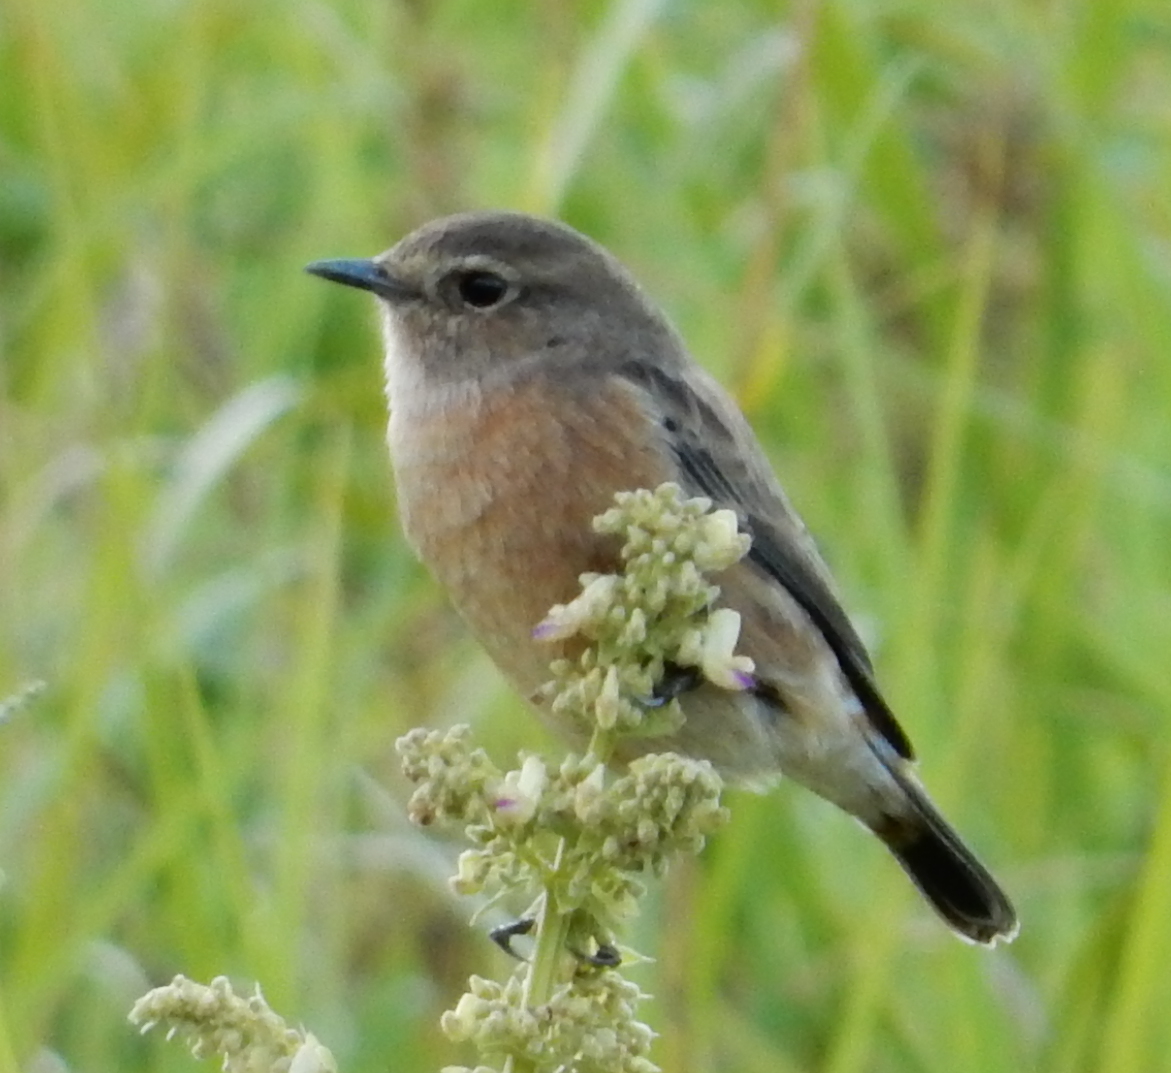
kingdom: Animalia
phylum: Chordata
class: Aves
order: Passeriformes
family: Muscicapidae
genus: Saxicola
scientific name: Saxicola torquatus
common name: African stonechat
